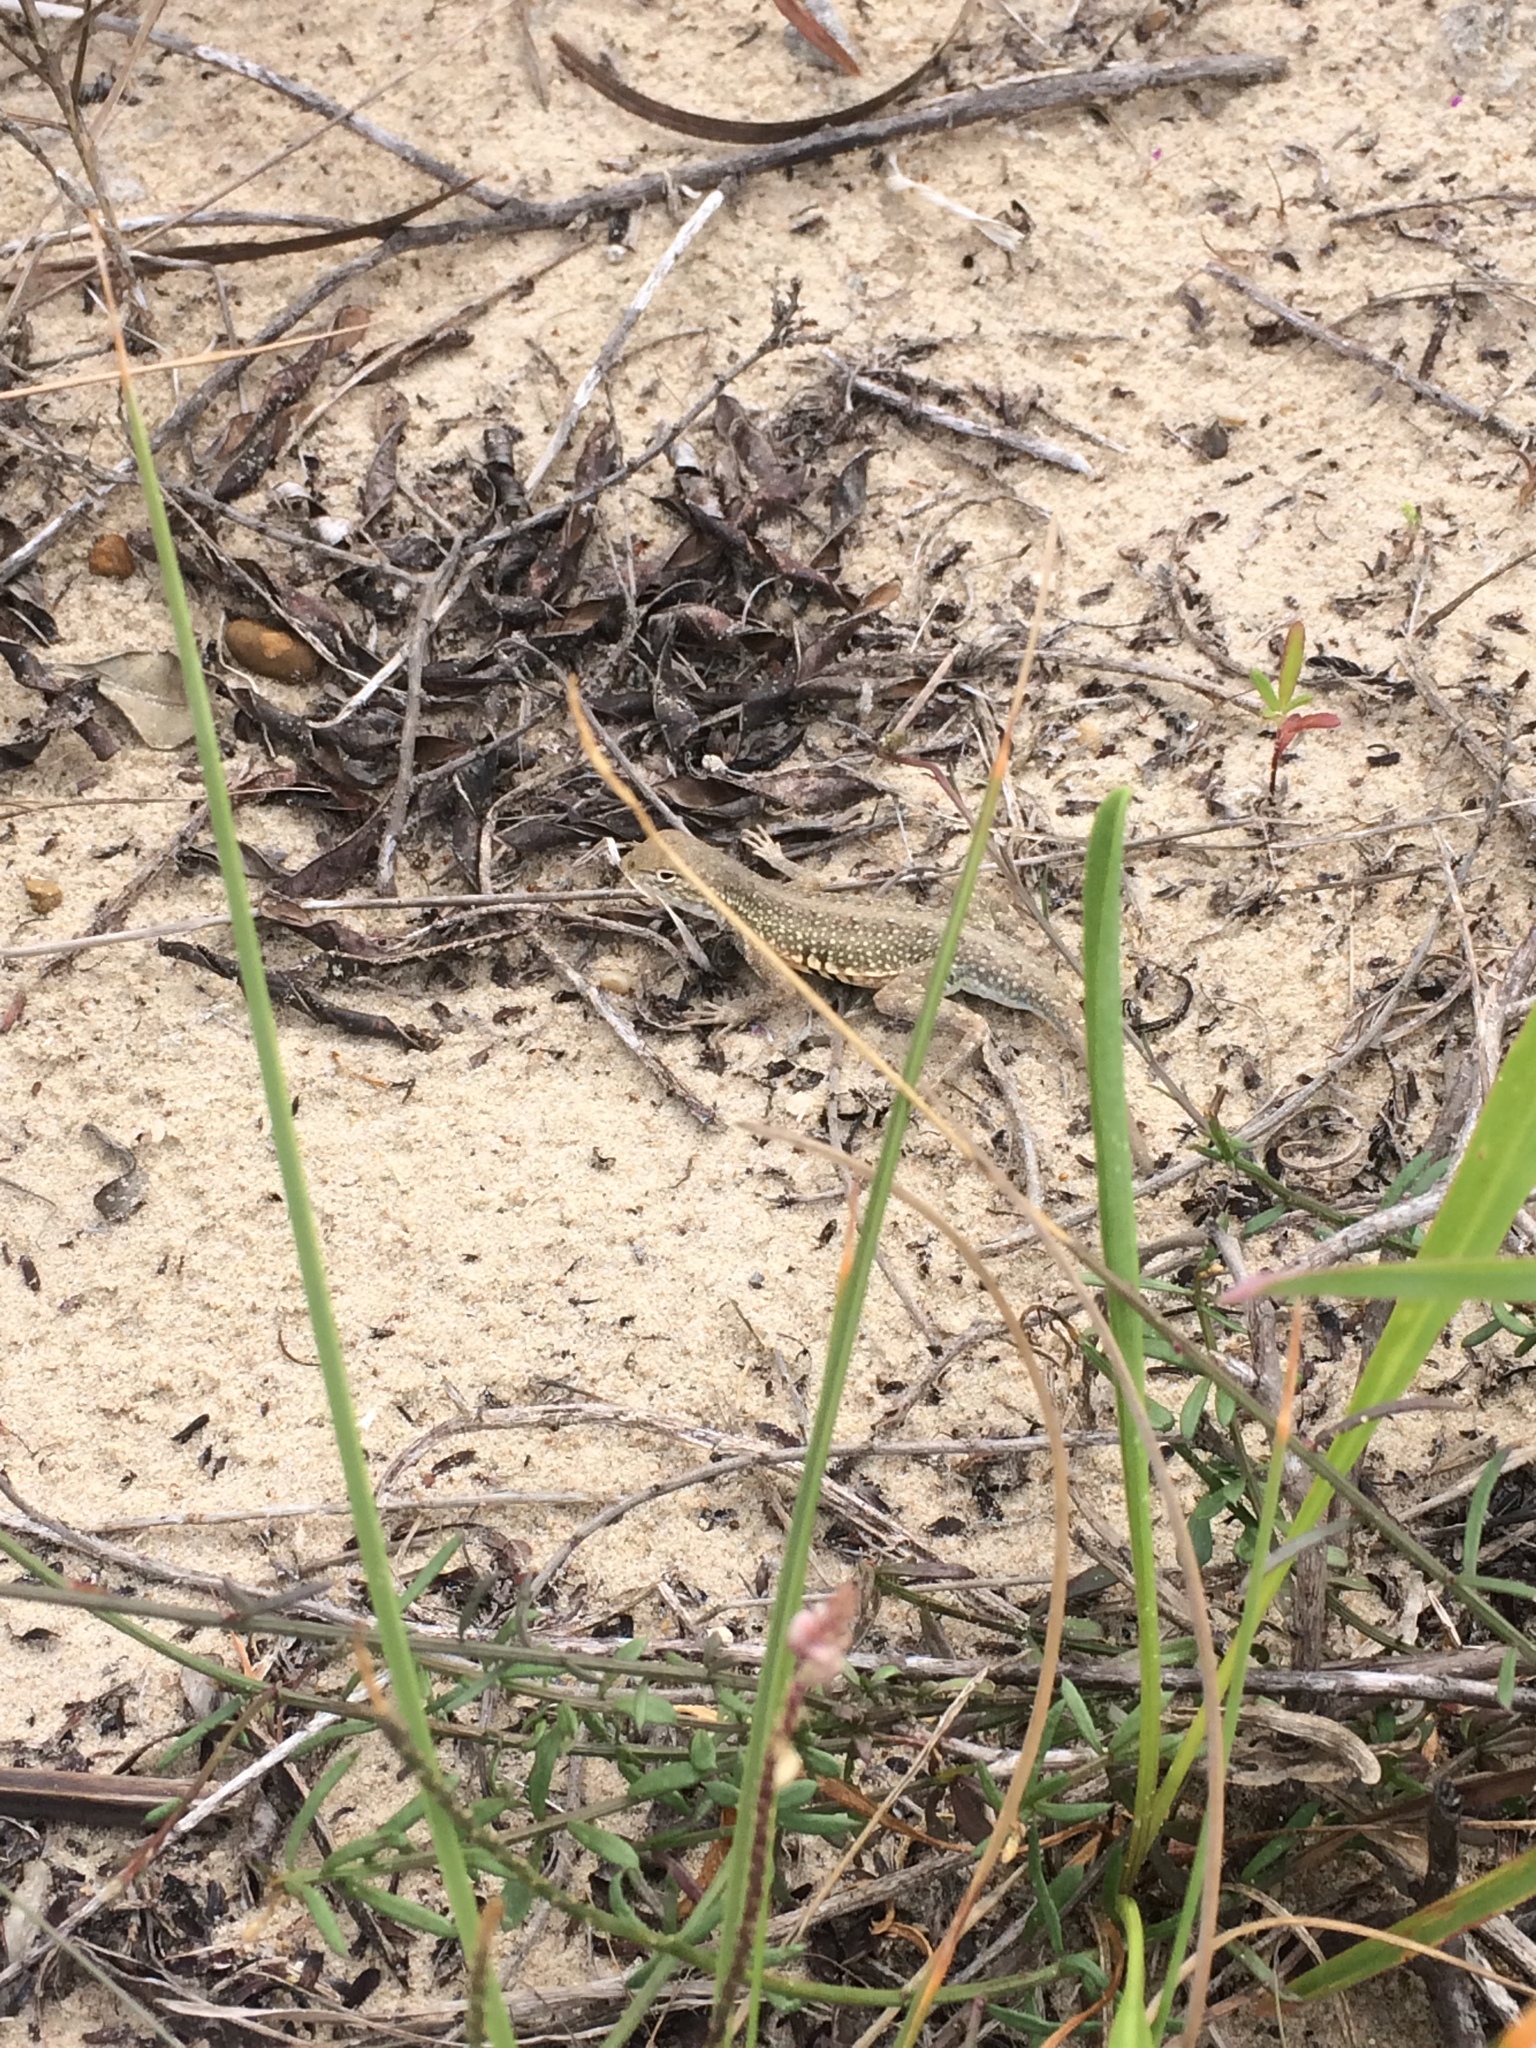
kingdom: Animalia
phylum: Chordata
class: Squamata
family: Phrynosomatidae
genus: Holbrookia
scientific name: Holbrookia propinqua
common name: Keeled earless lizard
